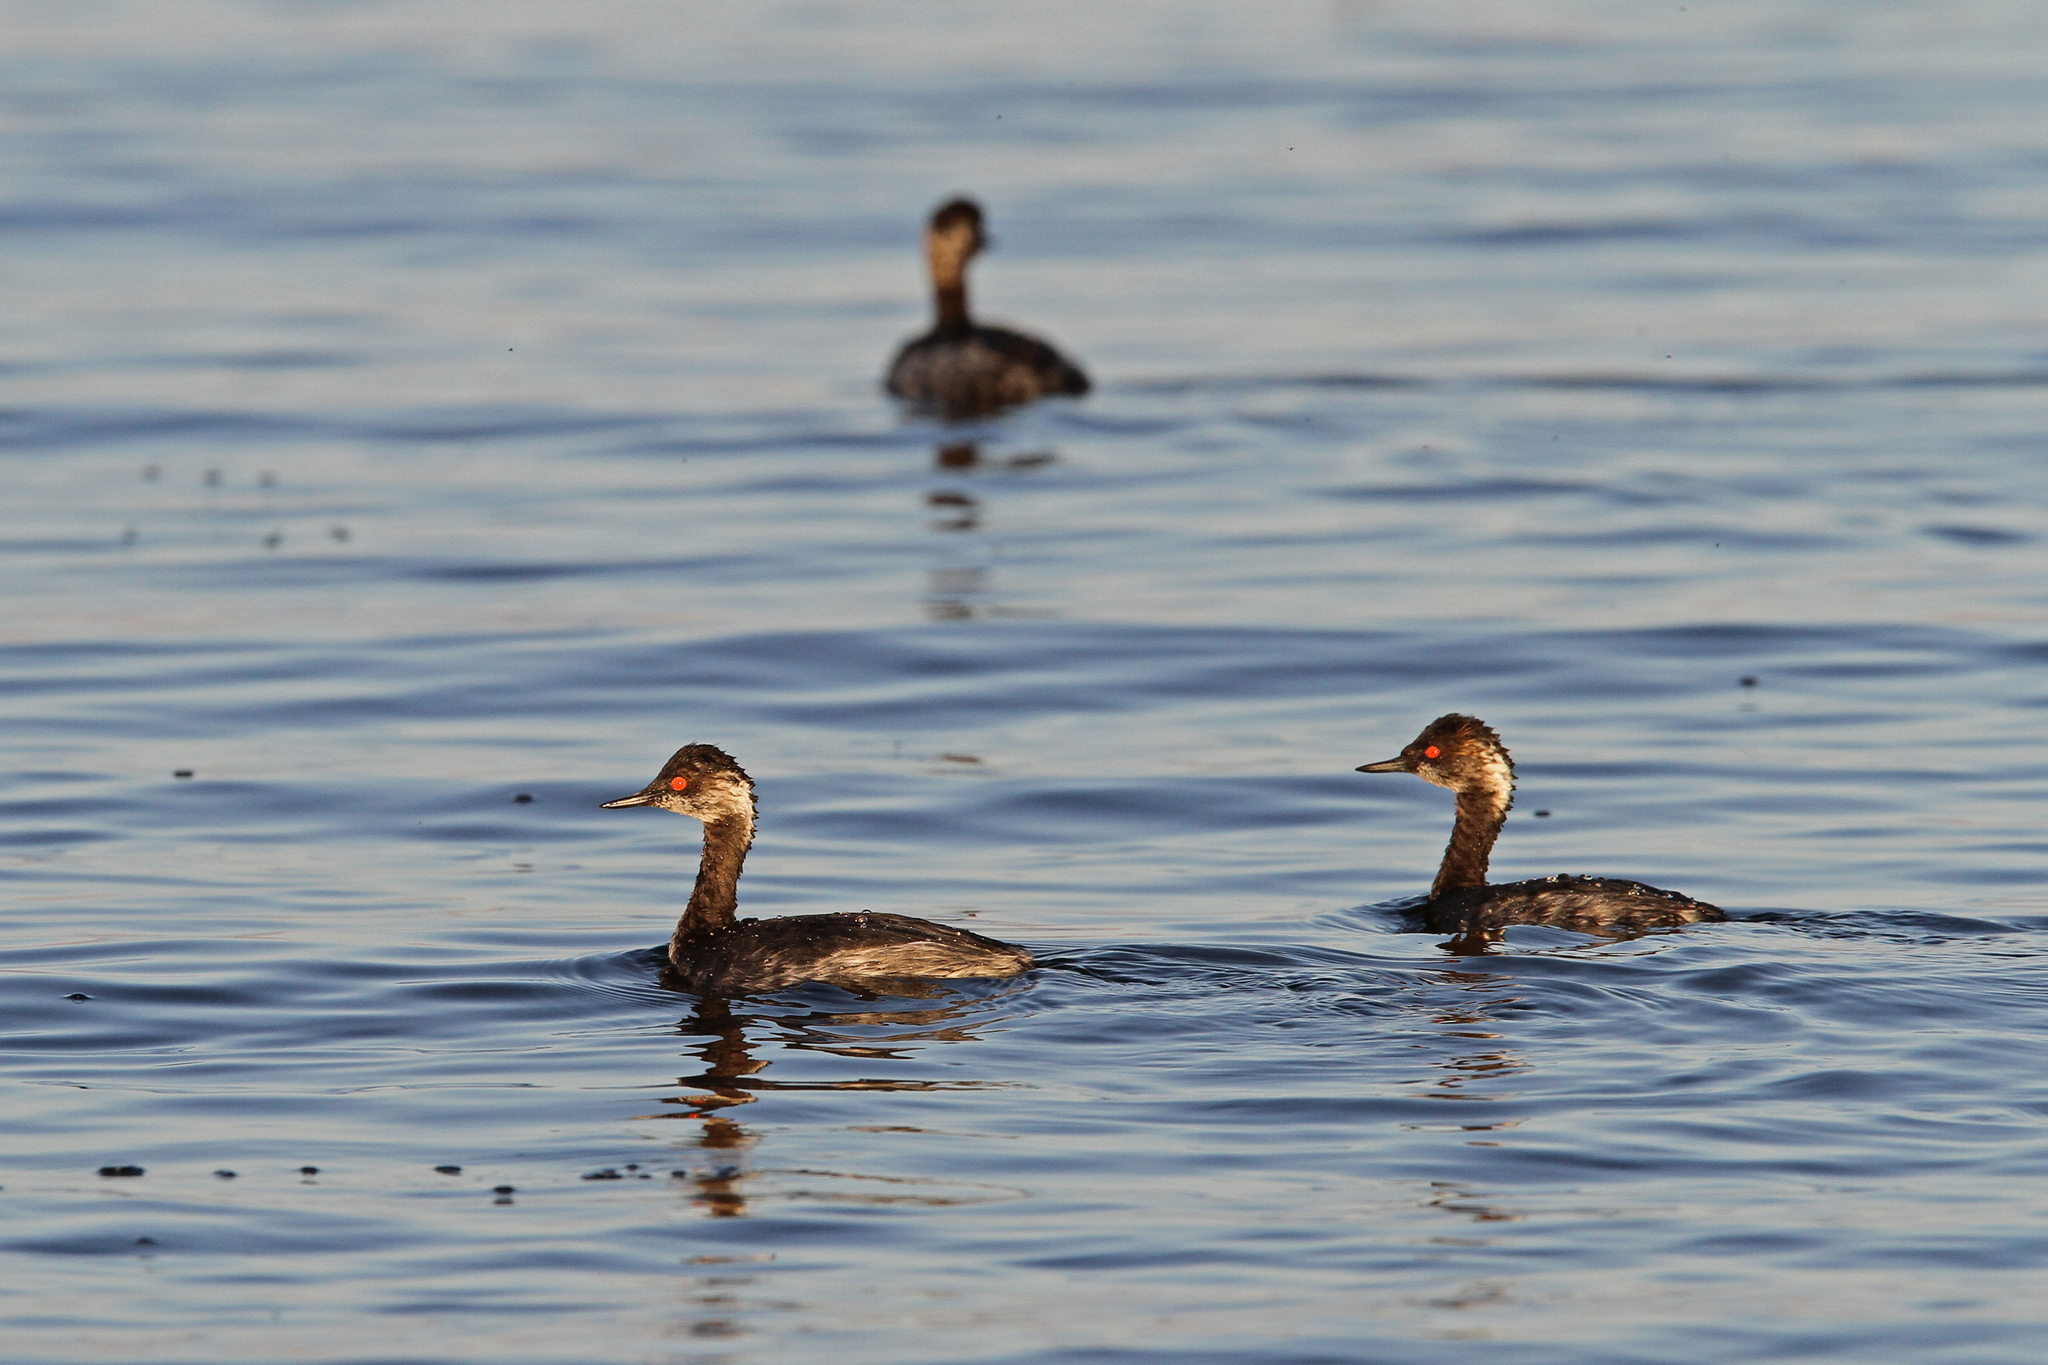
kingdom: Animalia
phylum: Chordata
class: Aves
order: Podicipediformes
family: Podicipedidae
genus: Podiceps
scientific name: Podiceps nigricollis
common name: Black-necked grebe
